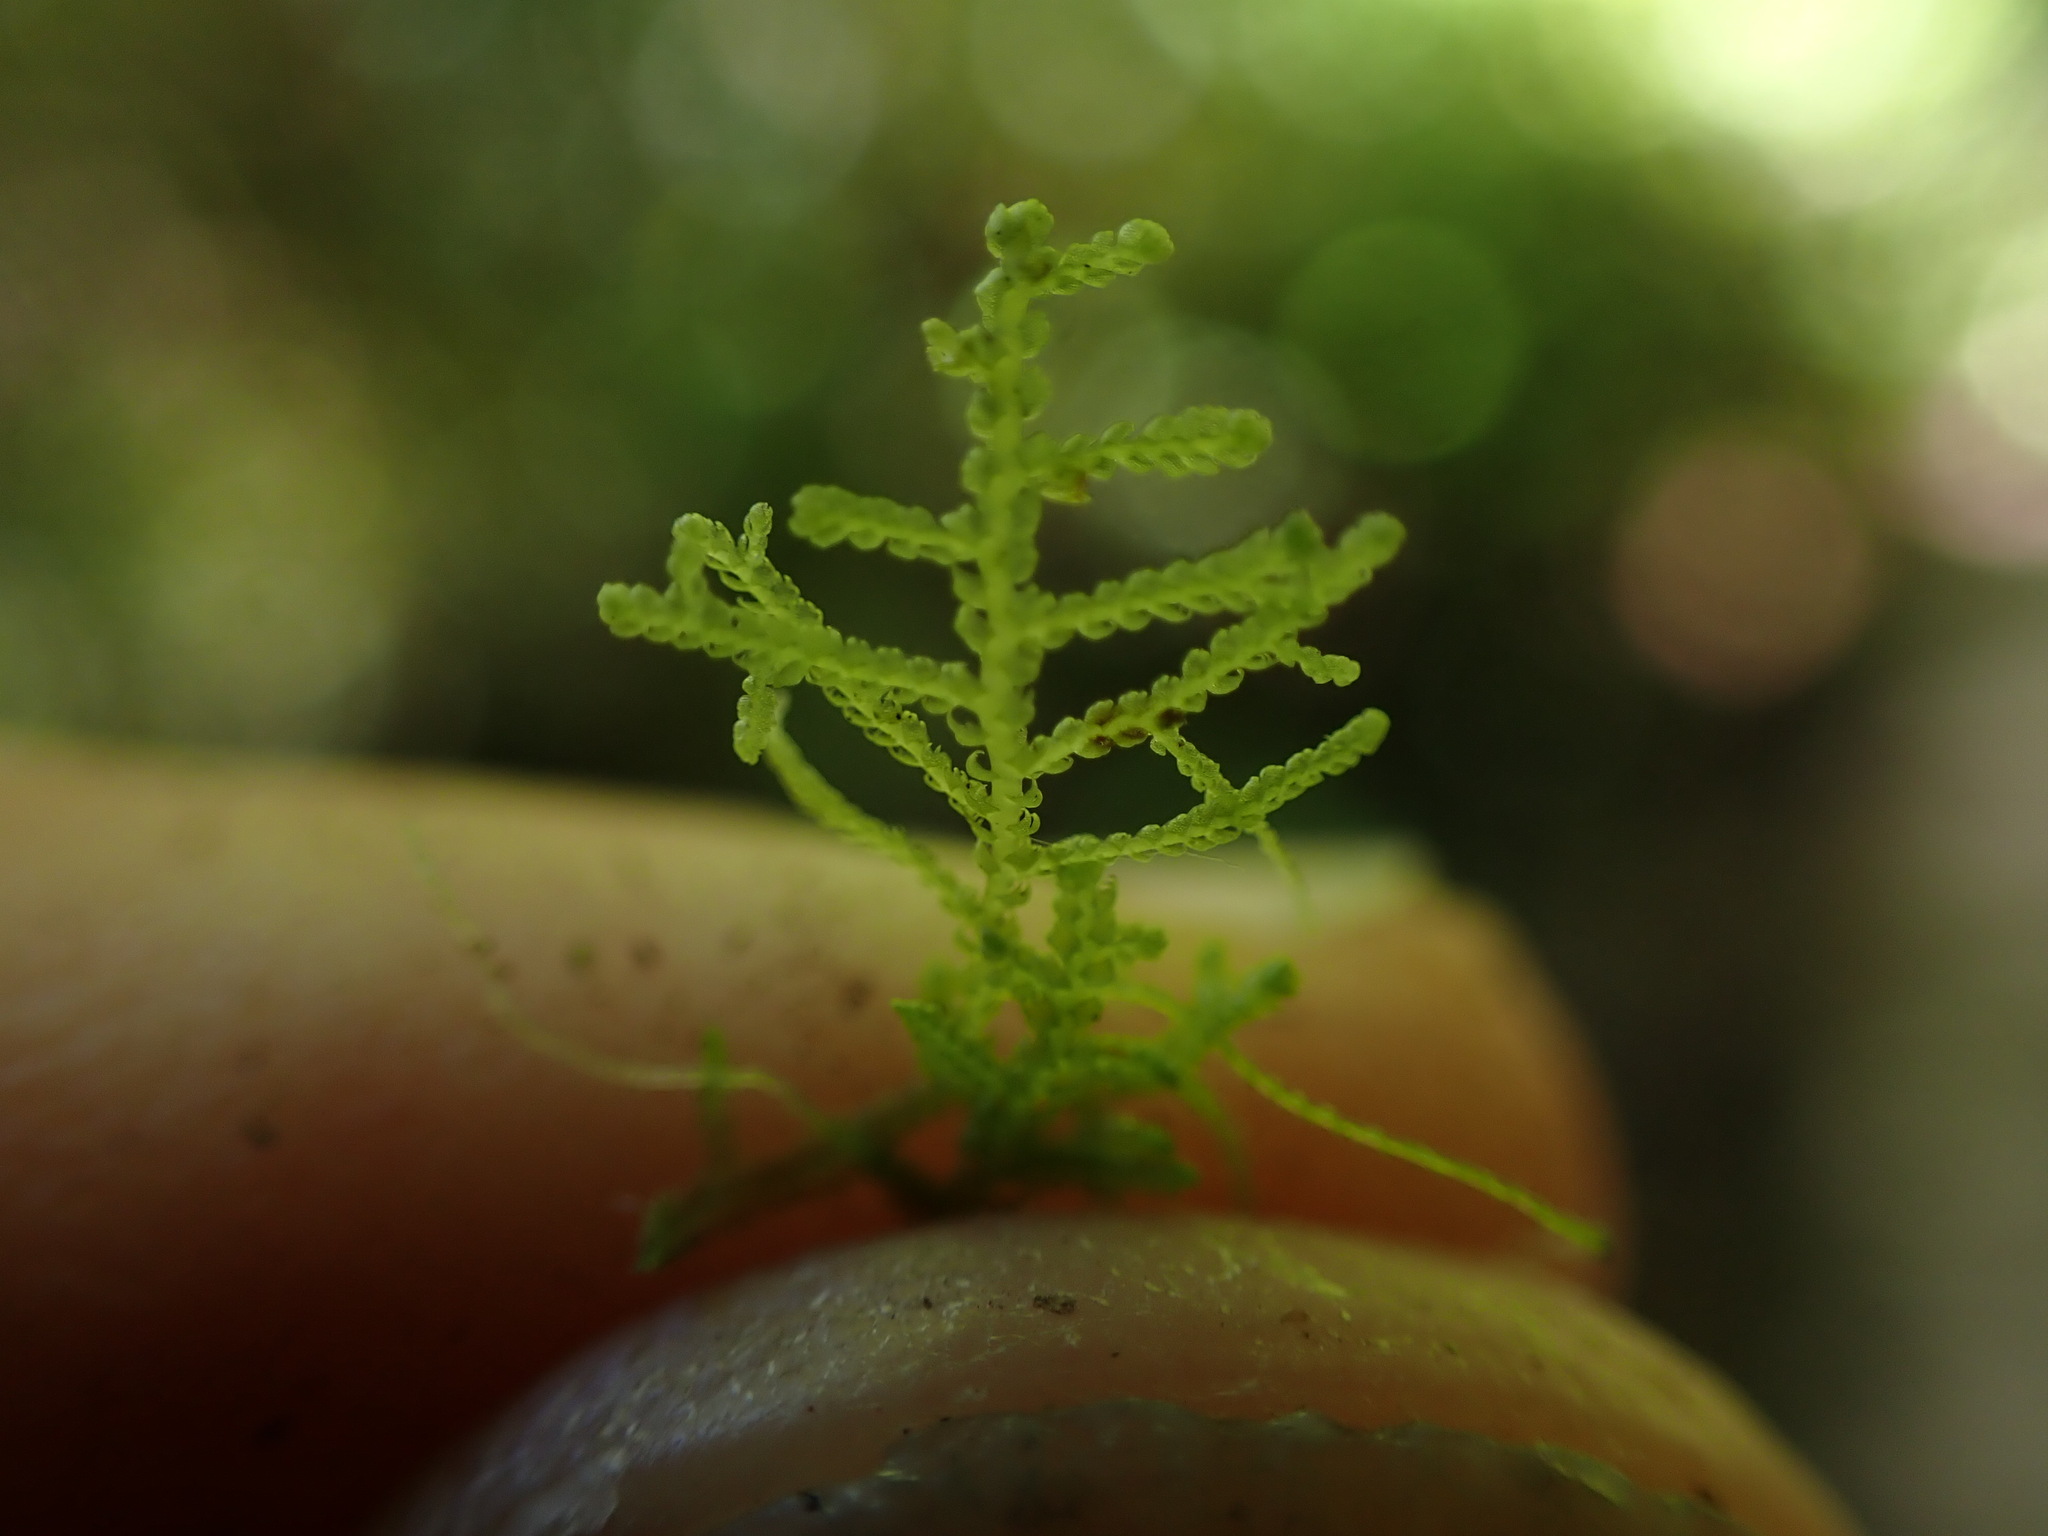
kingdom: Plantae
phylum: Marchantiophyta
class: Jungermanniopsida
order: Jungermanniales
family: Lepidoziaceae
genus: Lepidozia
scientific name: Lepidozia reptans
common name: Creeping fingerwort
